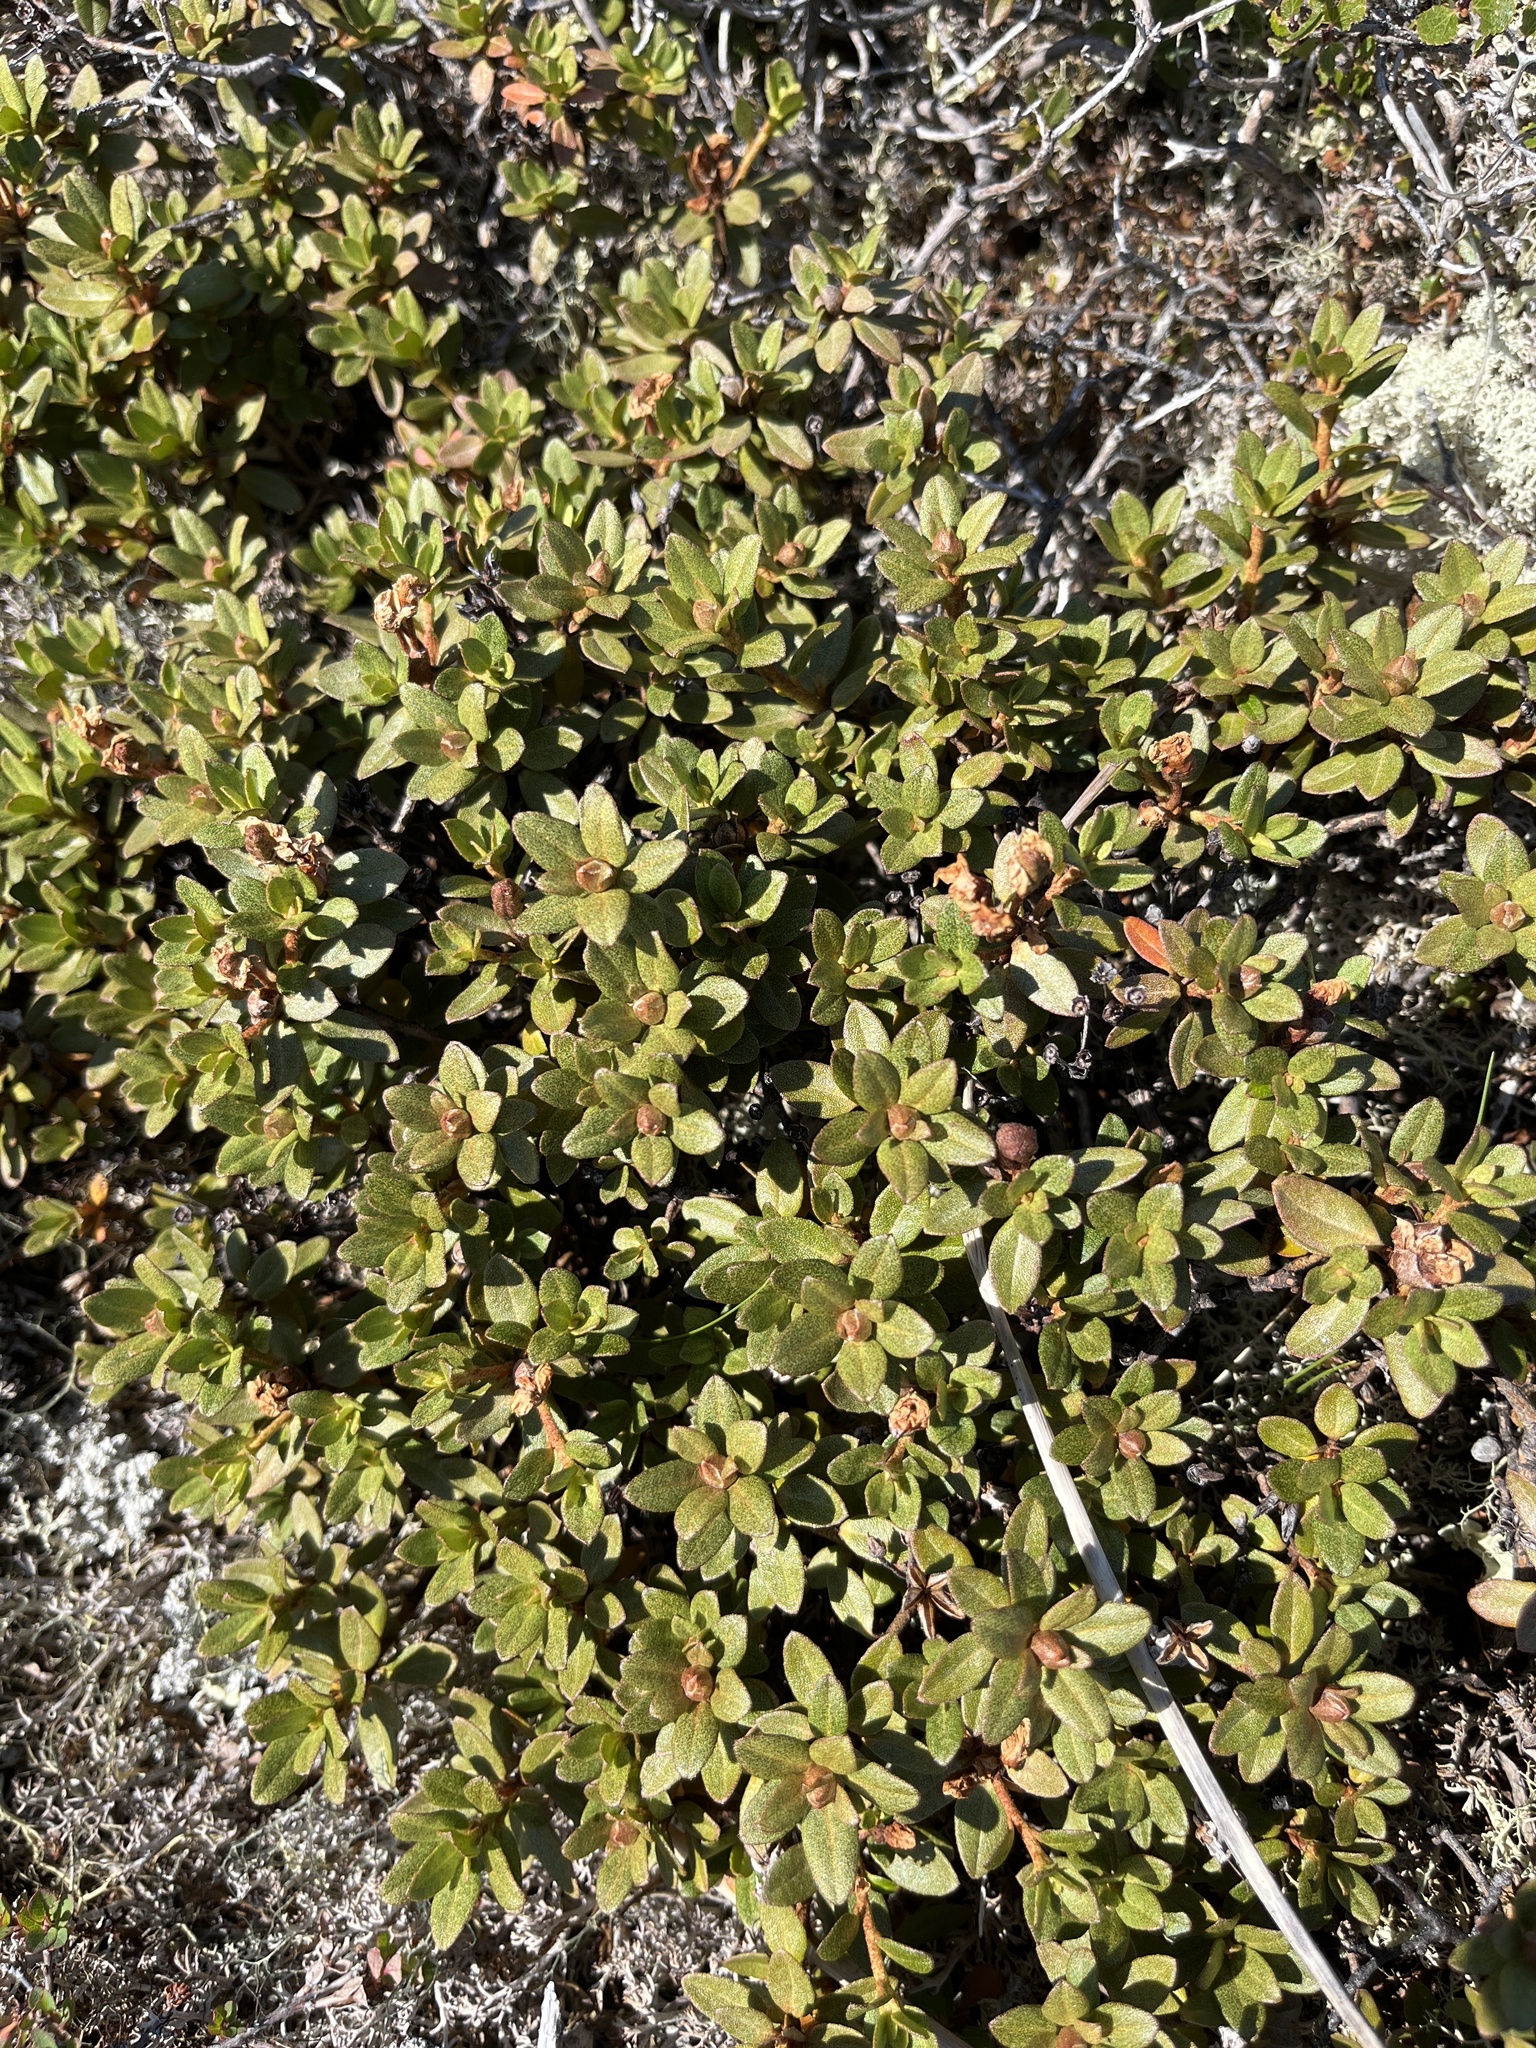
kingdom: Plantae
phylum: Tracheophyta
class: Magnoliopsida
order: Ericales
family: Ericaceae
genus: Rhododendron
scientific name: Rhododendron lapponicum
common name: Lapland rhododendron
